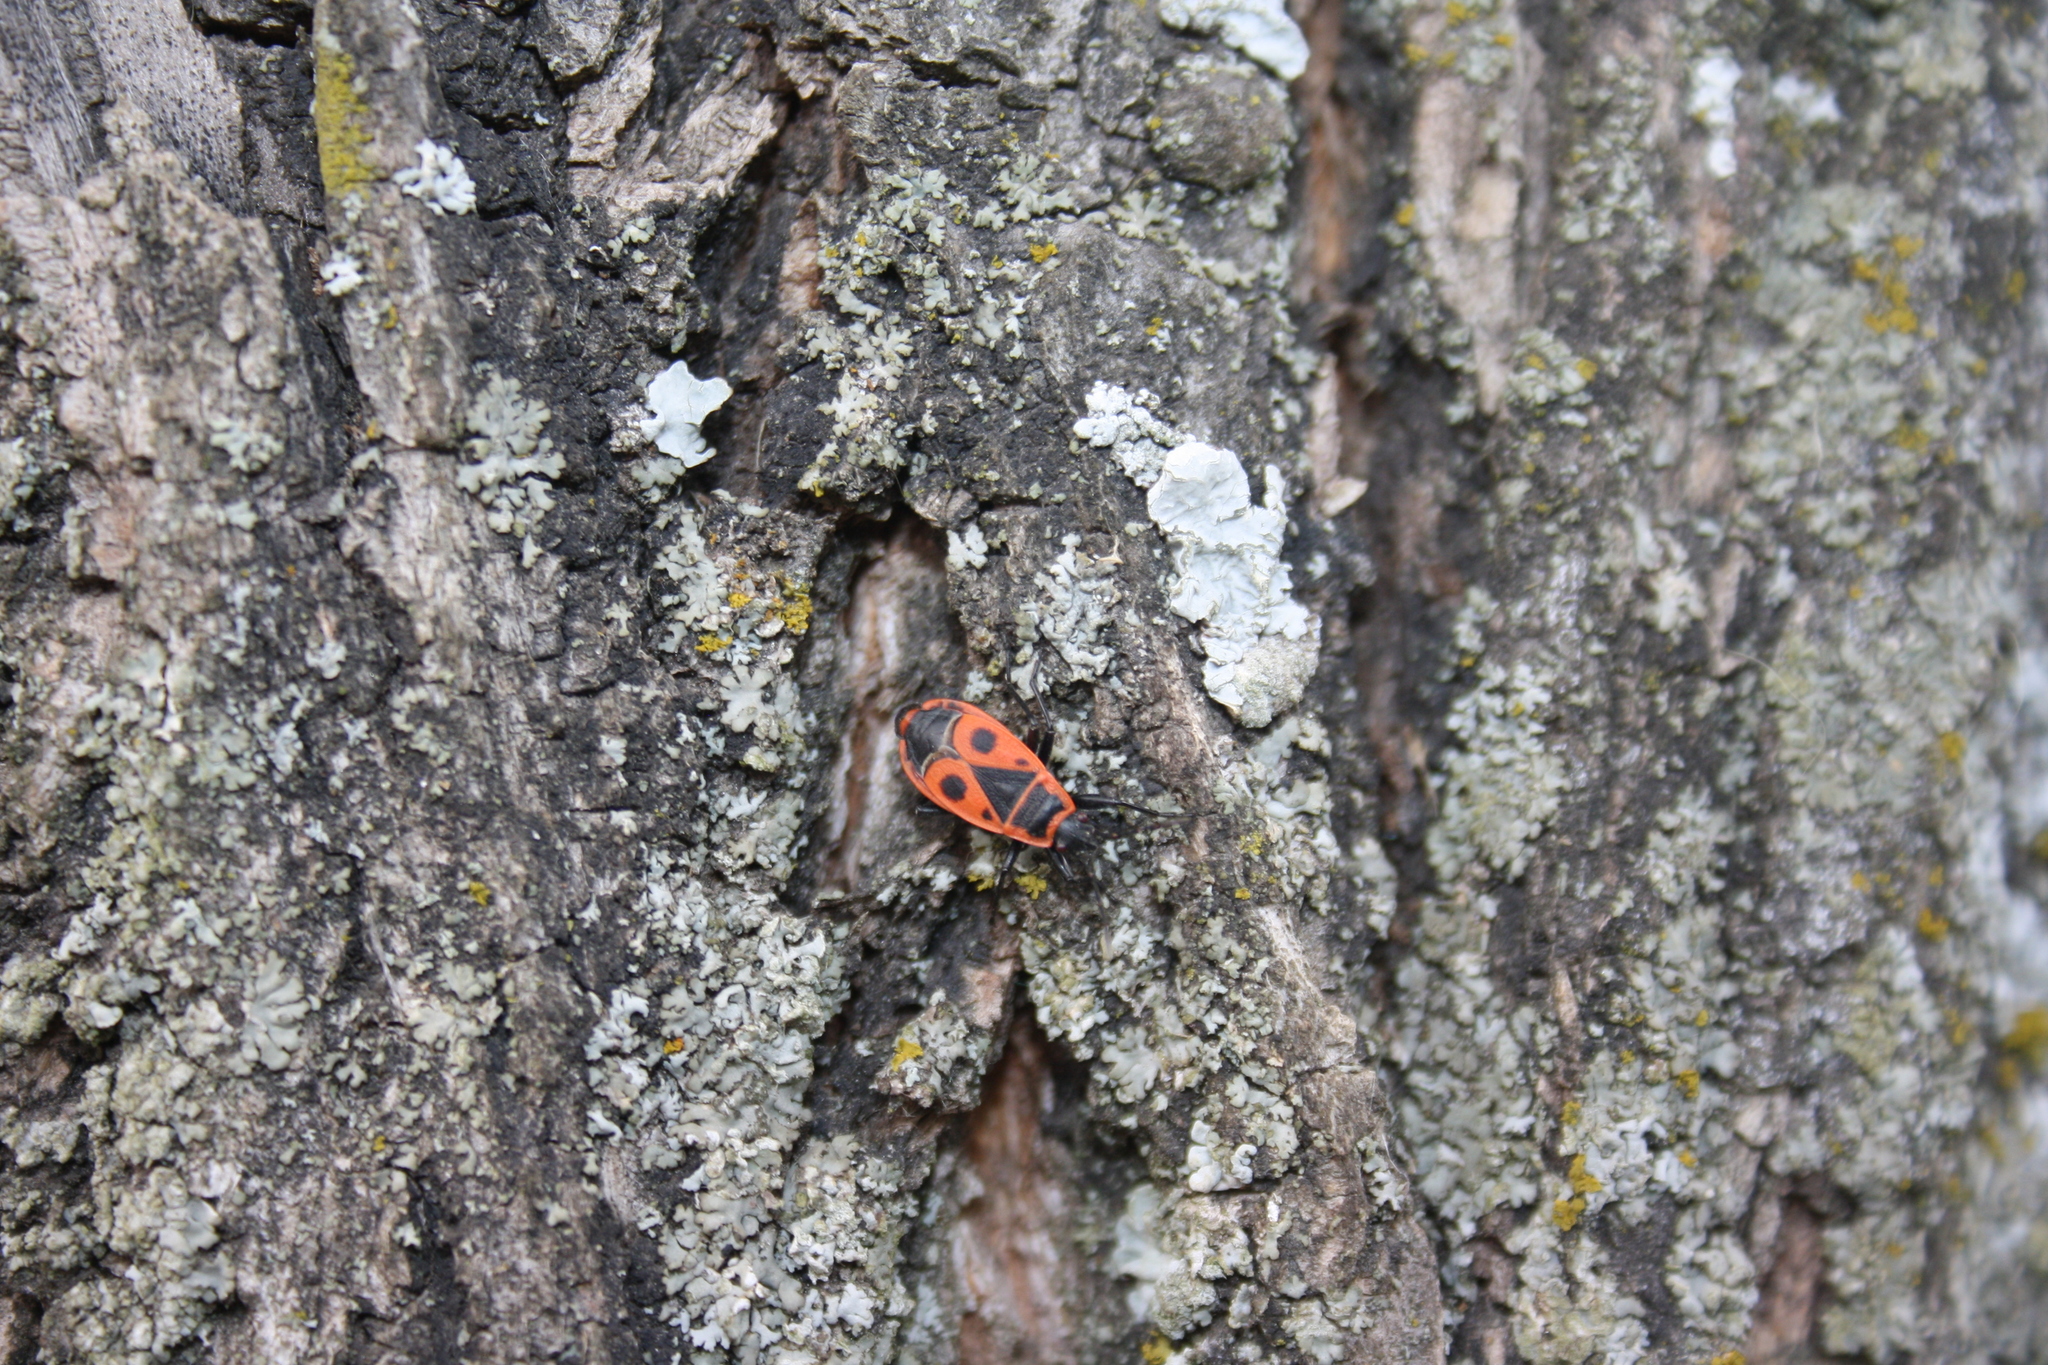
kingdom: Animalia
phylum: Arthropoda
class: Insecta
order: Hemiptera
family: Pyrrhocoridae
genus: Pyrrhocoris
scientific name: Pyrrhocoris apterus
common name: Firebug
